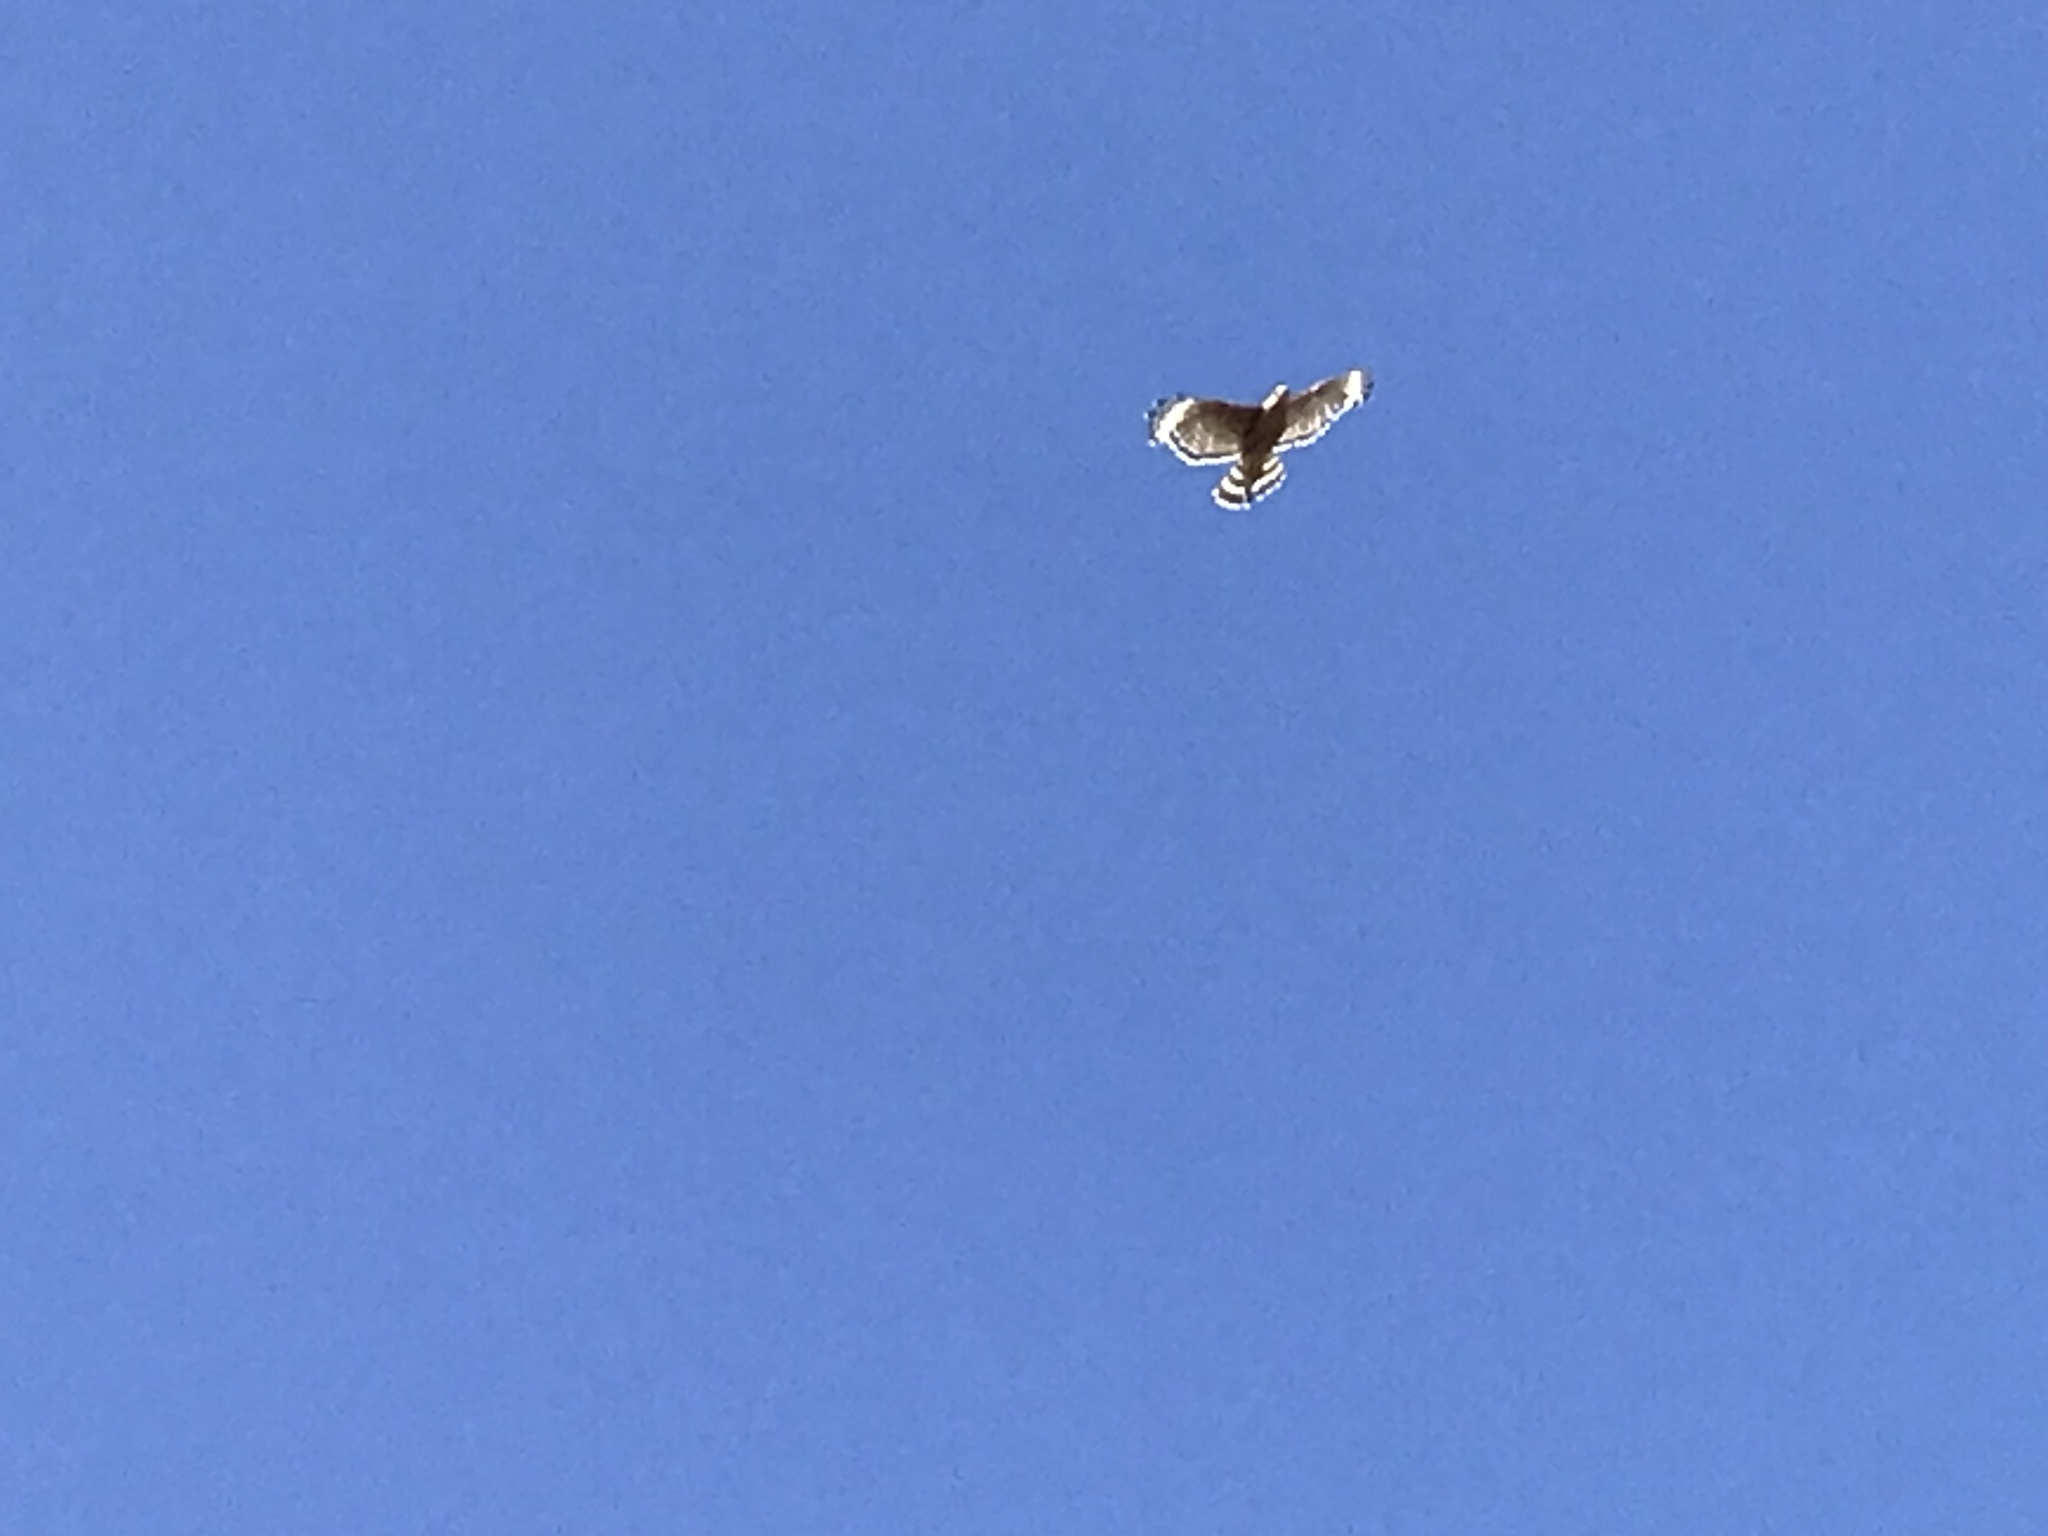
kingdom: Animalia
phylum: Chordata
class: Aves
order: Accipitriformes
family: Accipitridae
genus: Buteo
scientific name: Buteo lineatus
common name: Red-shouldered hawk
